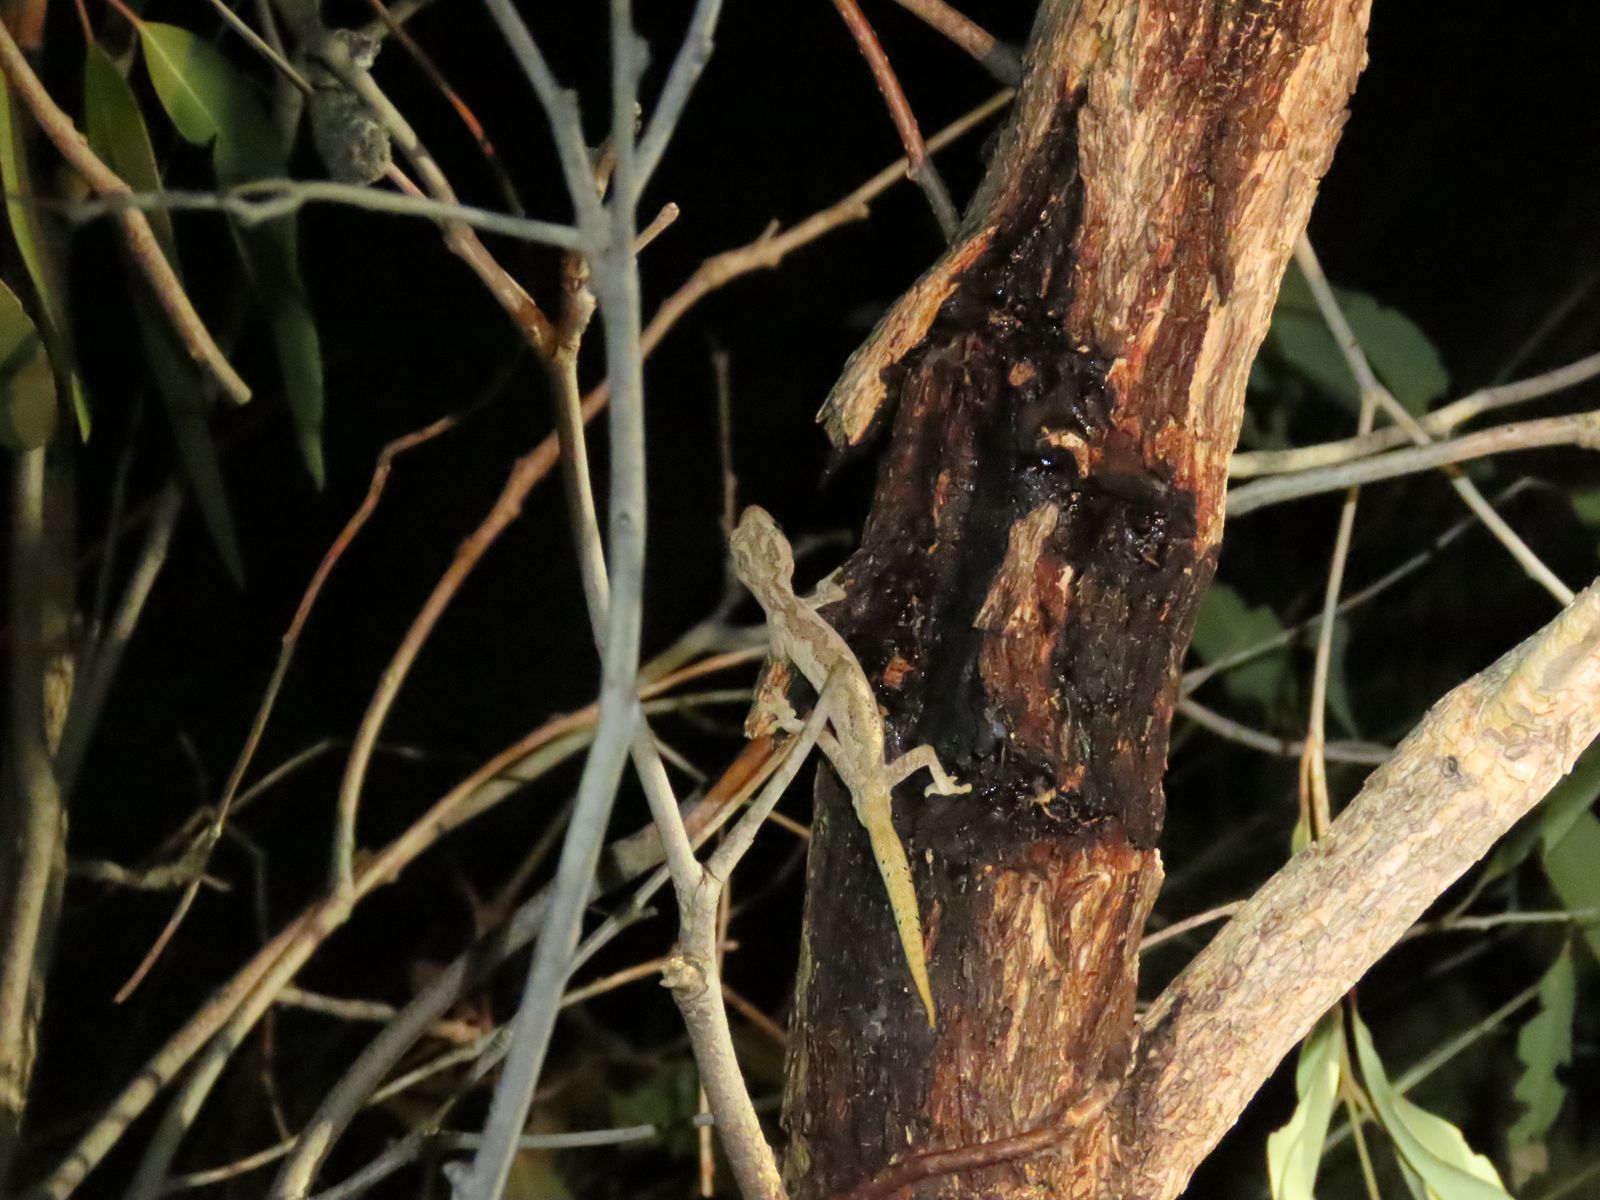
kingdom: Animalia
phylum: Chordata
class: Squamata
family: Diplodactylidae
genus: Strophurus
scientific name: Strophurus ciliaris
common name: Northern spiny-tailed gecko
